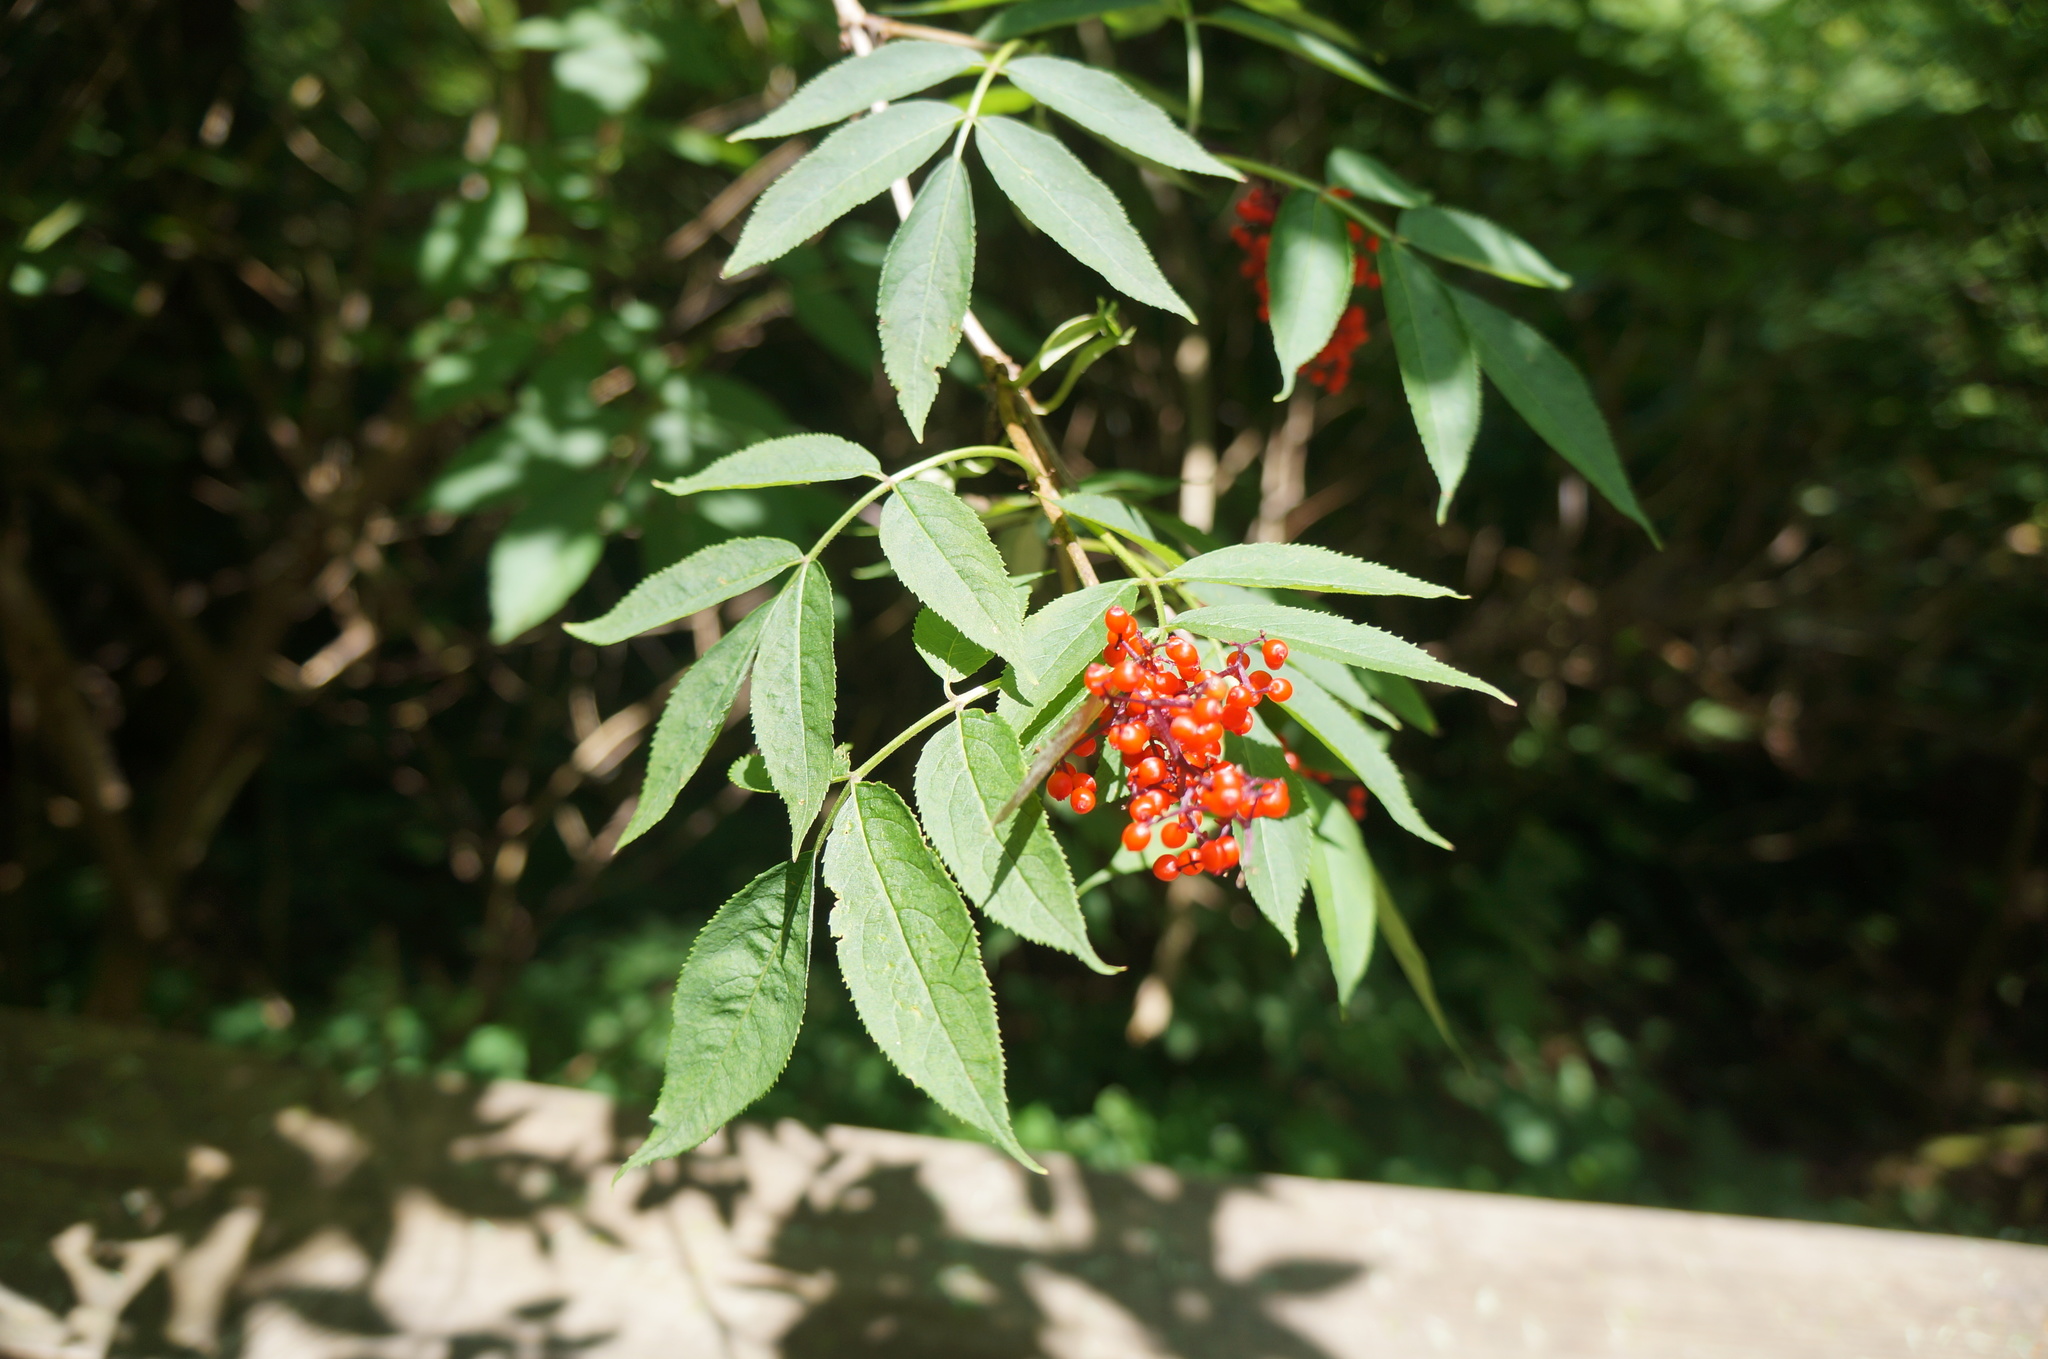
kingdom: Plantae
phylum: Tracheophyta
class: Magnoliopsida
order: Dipsacales
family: Viburnaceae
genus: Sambucus
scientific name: Sambucus racemosa
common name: Red-berried elder
